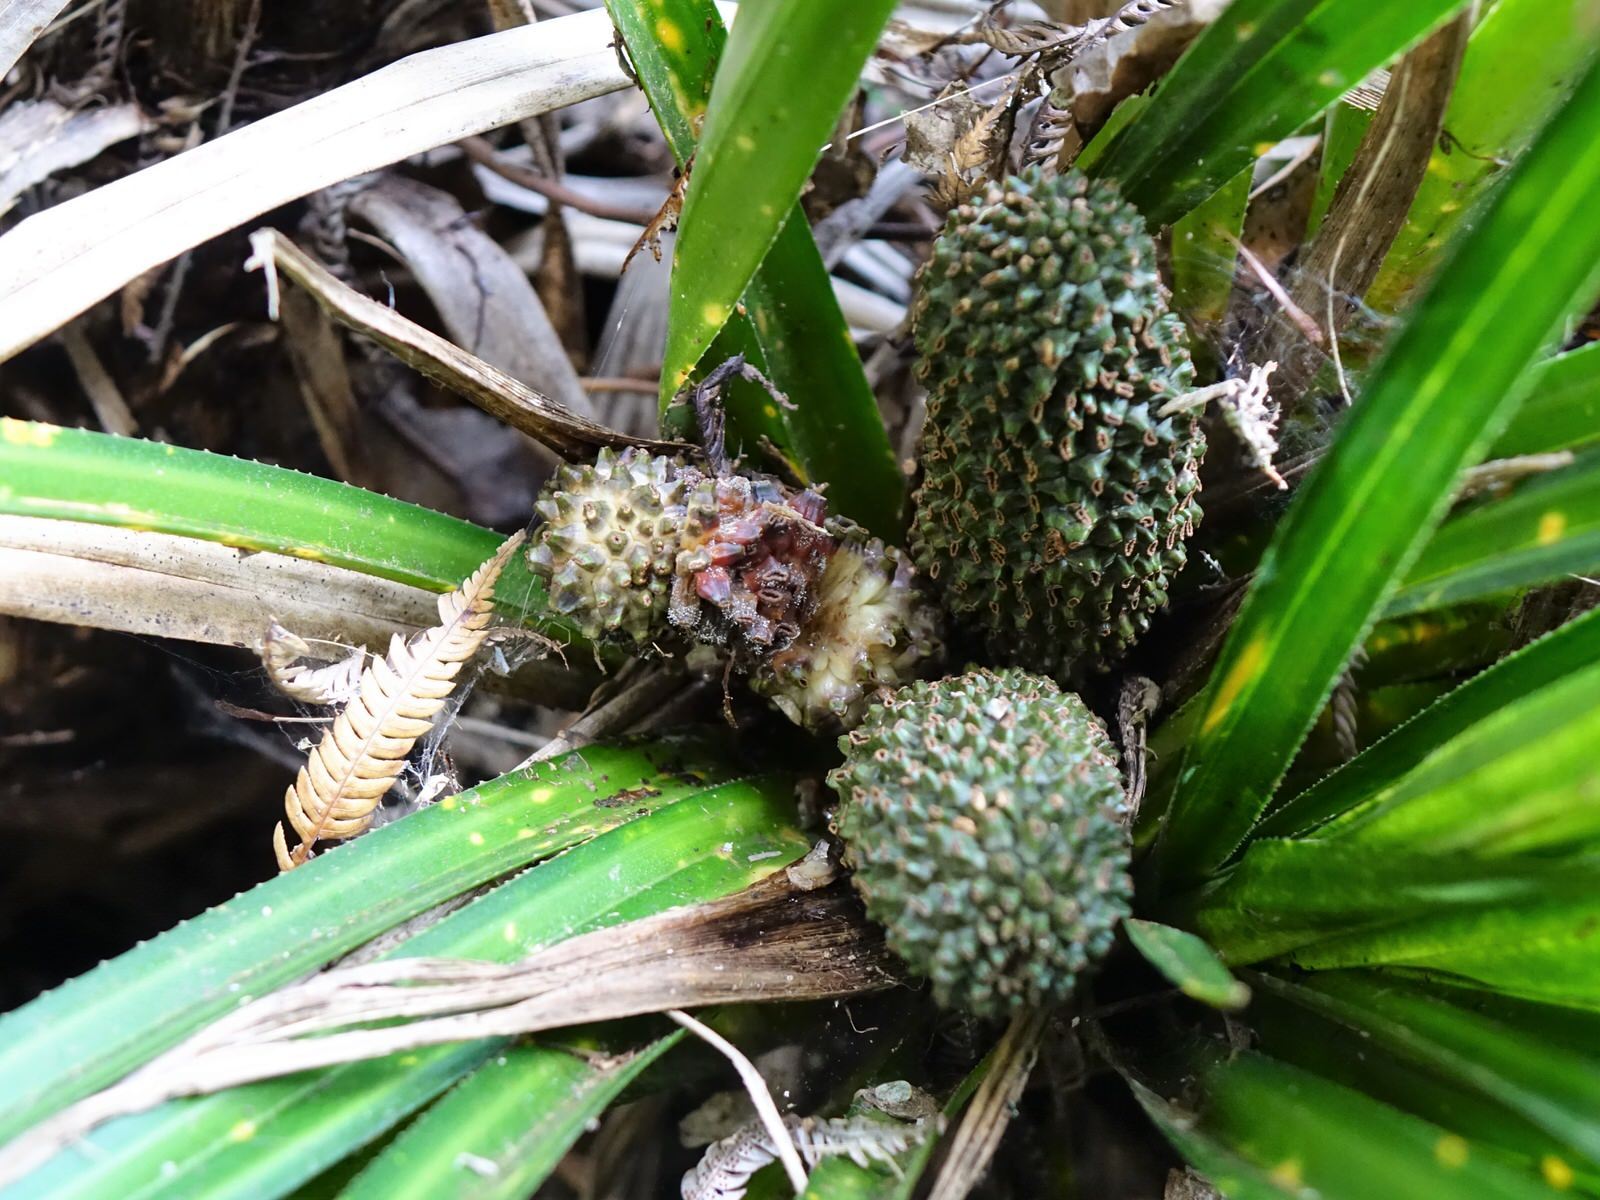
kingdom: Plantae
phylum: Tracheophyta
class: Liliopsida
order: Pandanales
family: Pandanaceae
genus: Freycinetia
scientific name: Freycinetia banksii
